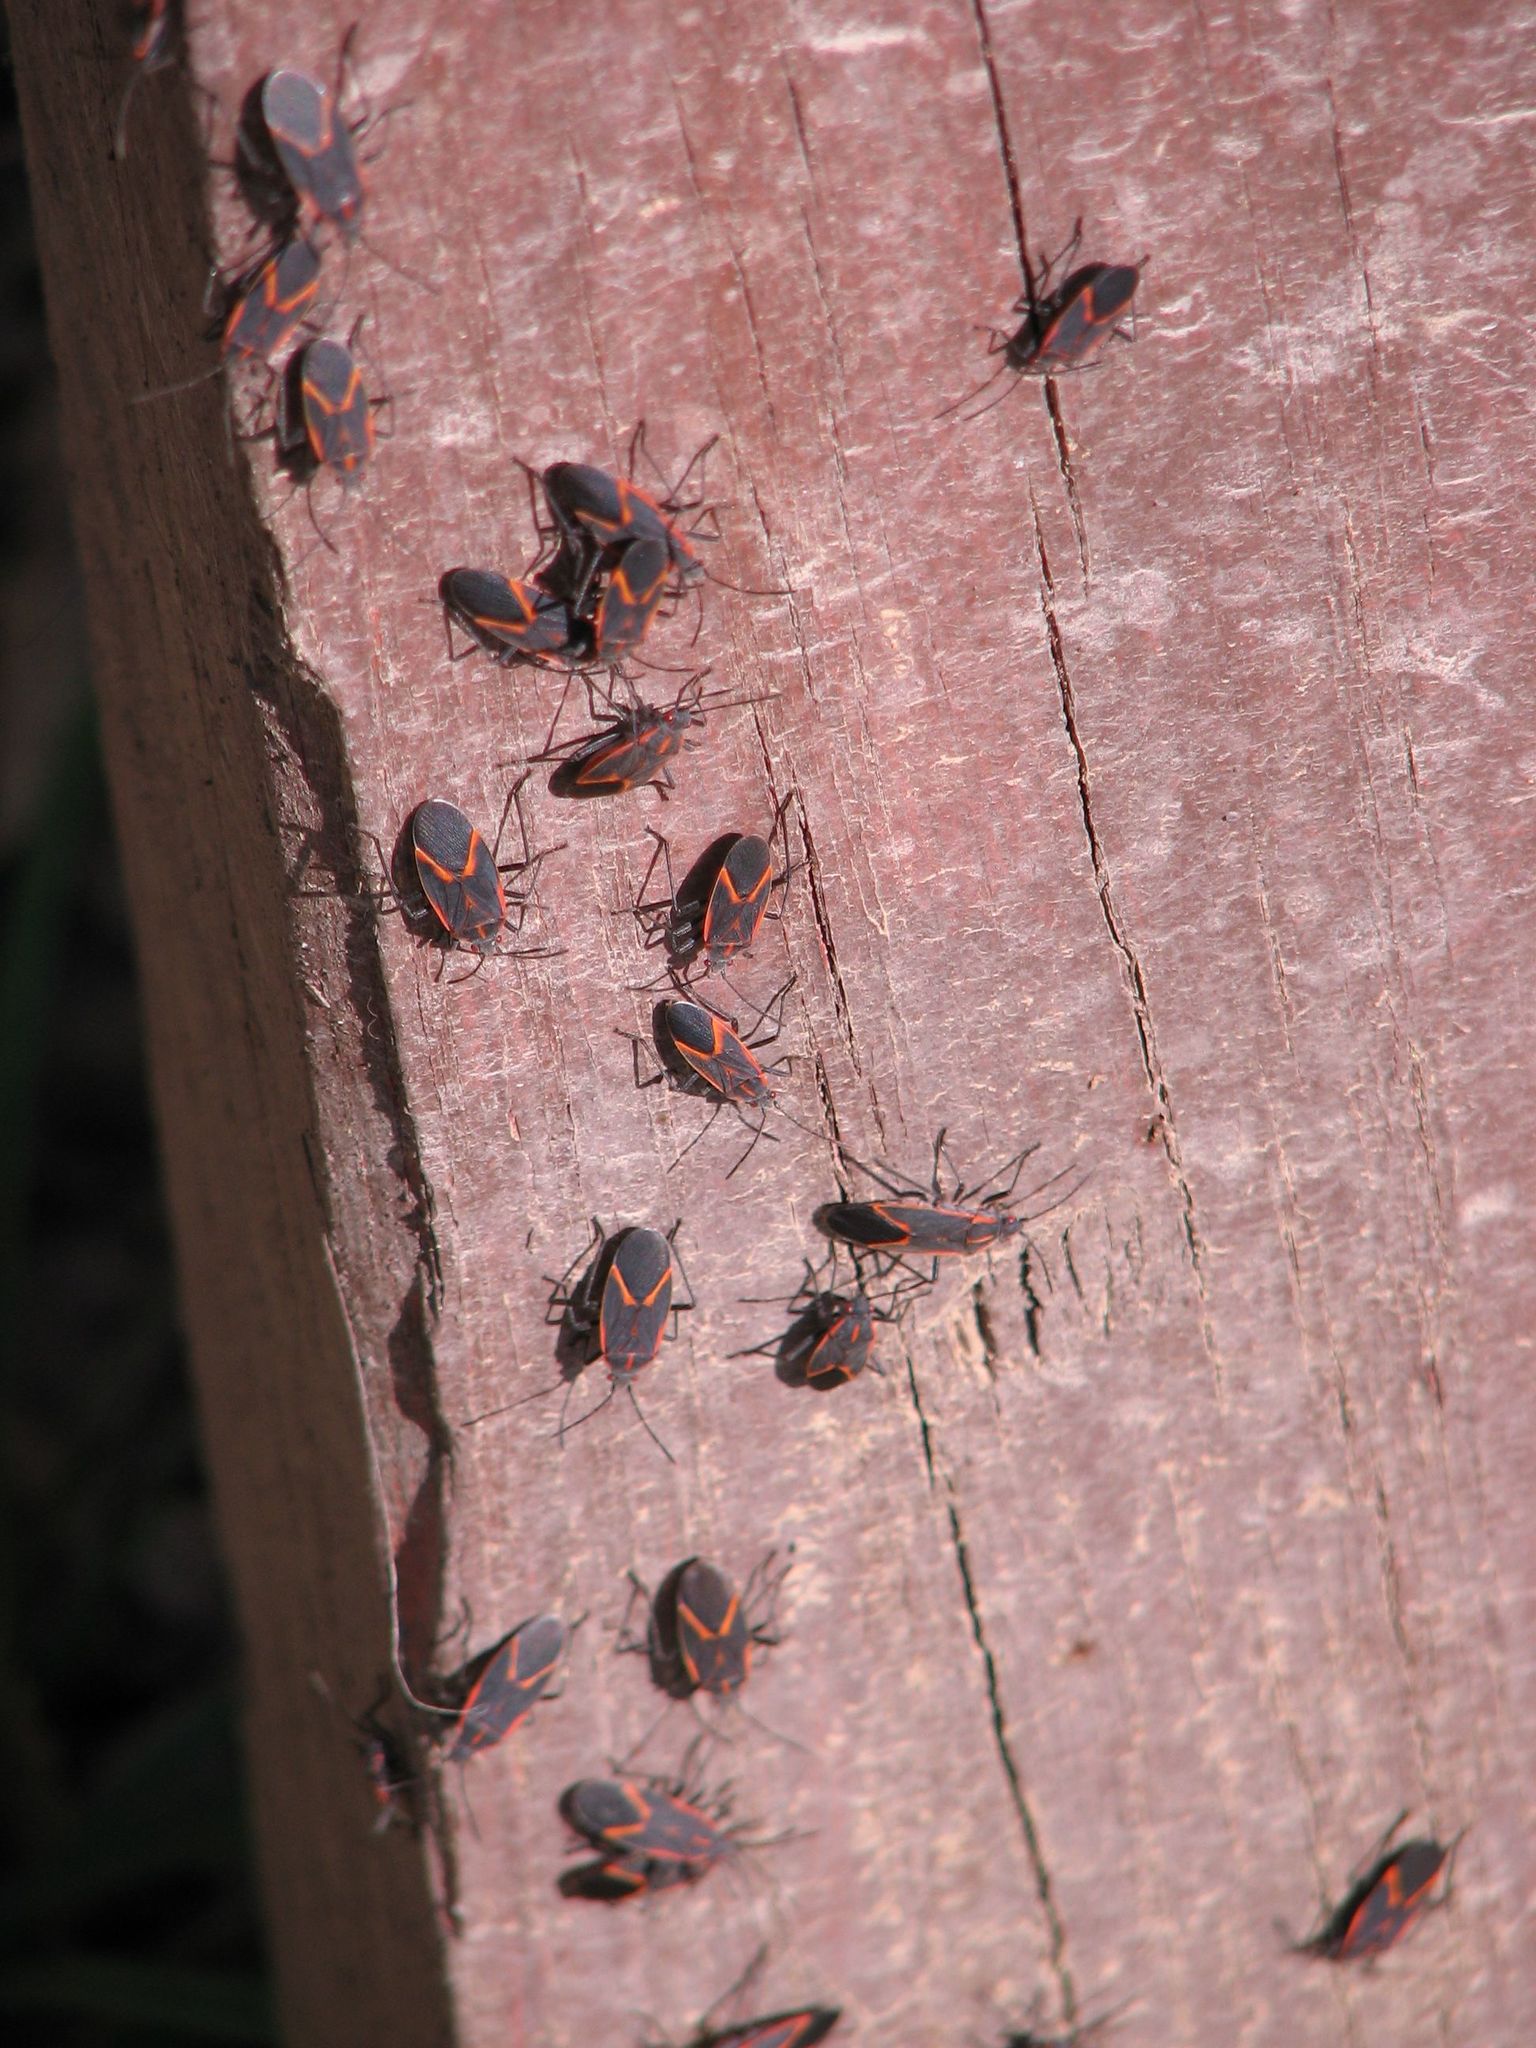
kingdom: Animalia
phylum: Arthropoda
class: Insecta
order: Hemiptera
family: Rhopalidae
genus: Boisea
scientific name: Boisea trivittata
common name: Boxelder bug
